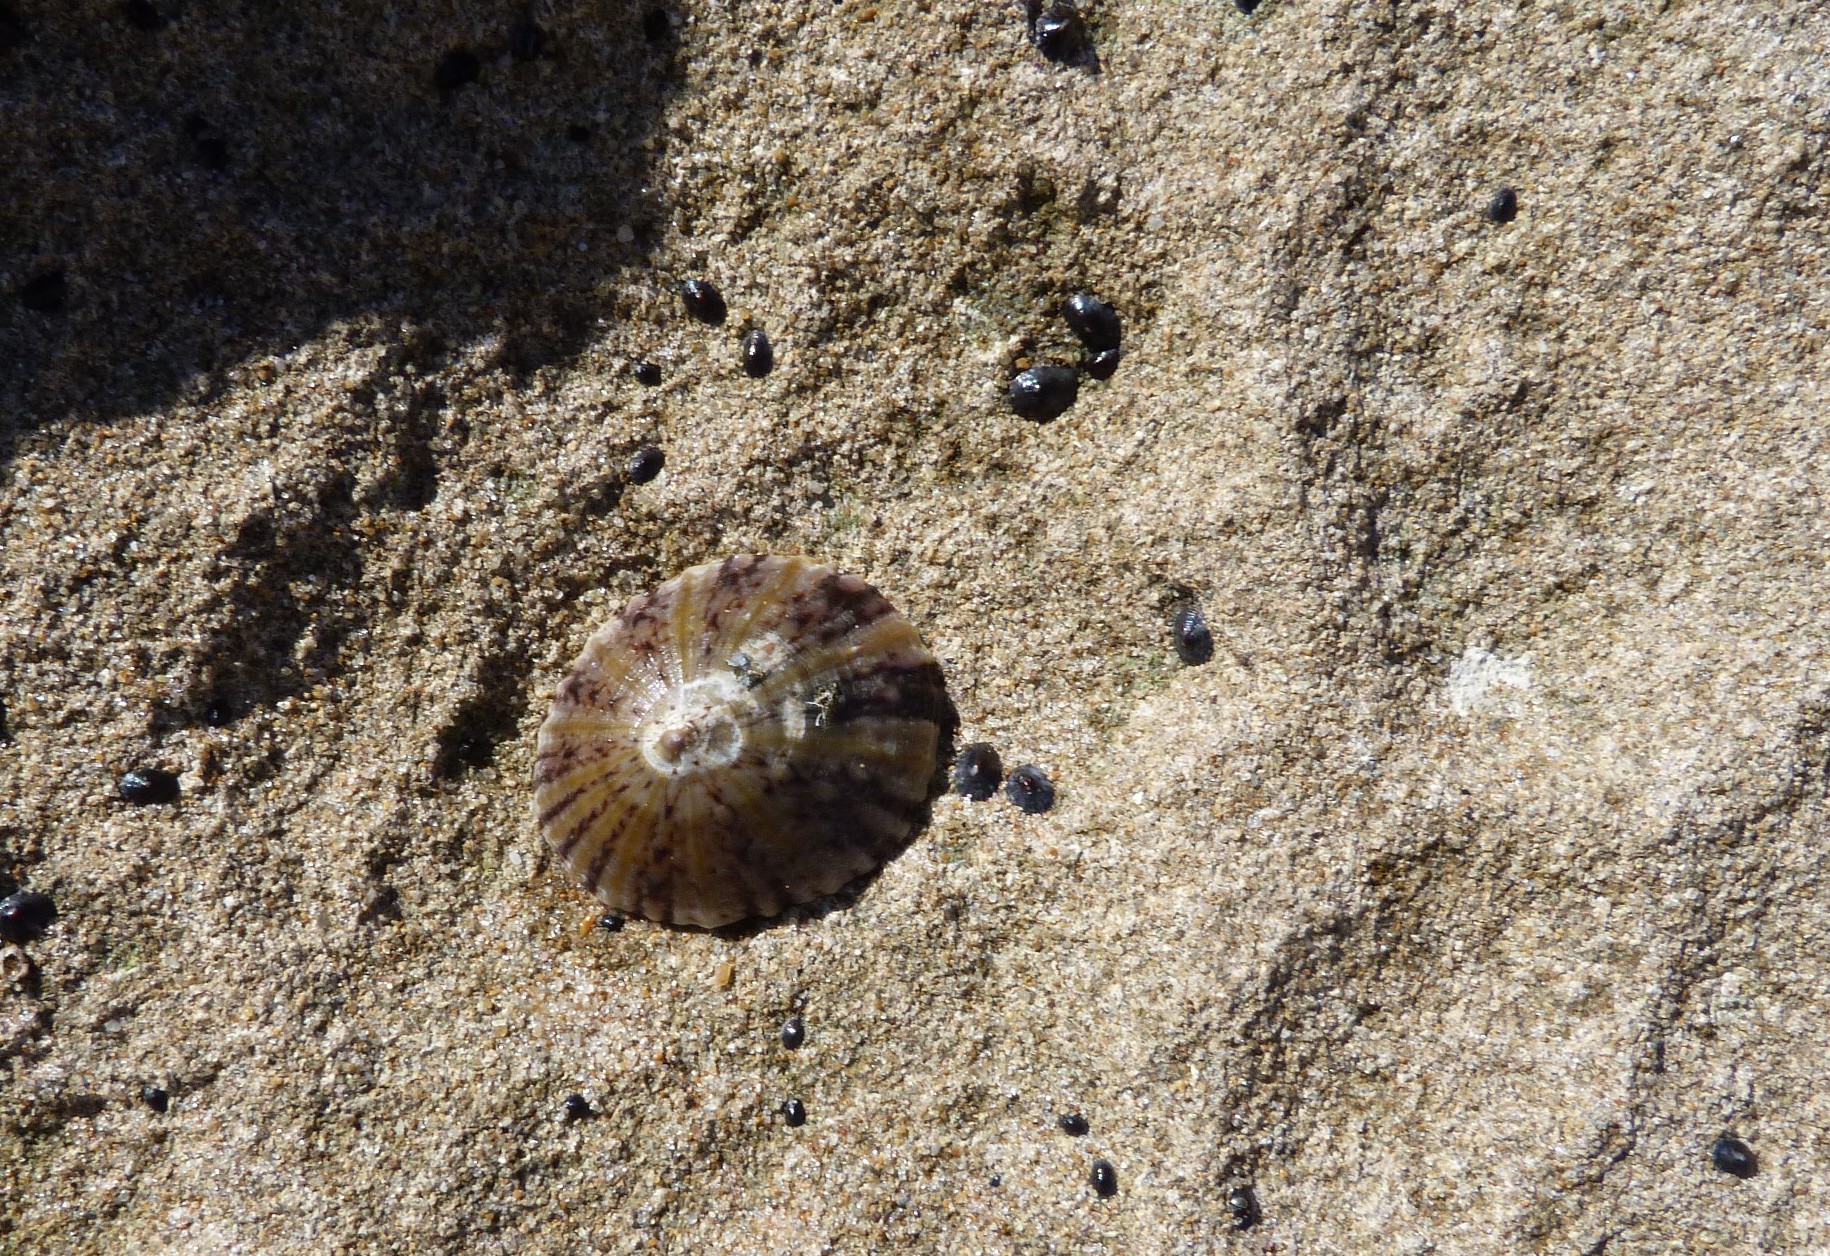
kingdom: Animalia
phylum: Mollusca
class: Gastropoda
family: Nacellidae
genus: Cellana
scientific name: Cellana tramoserica
